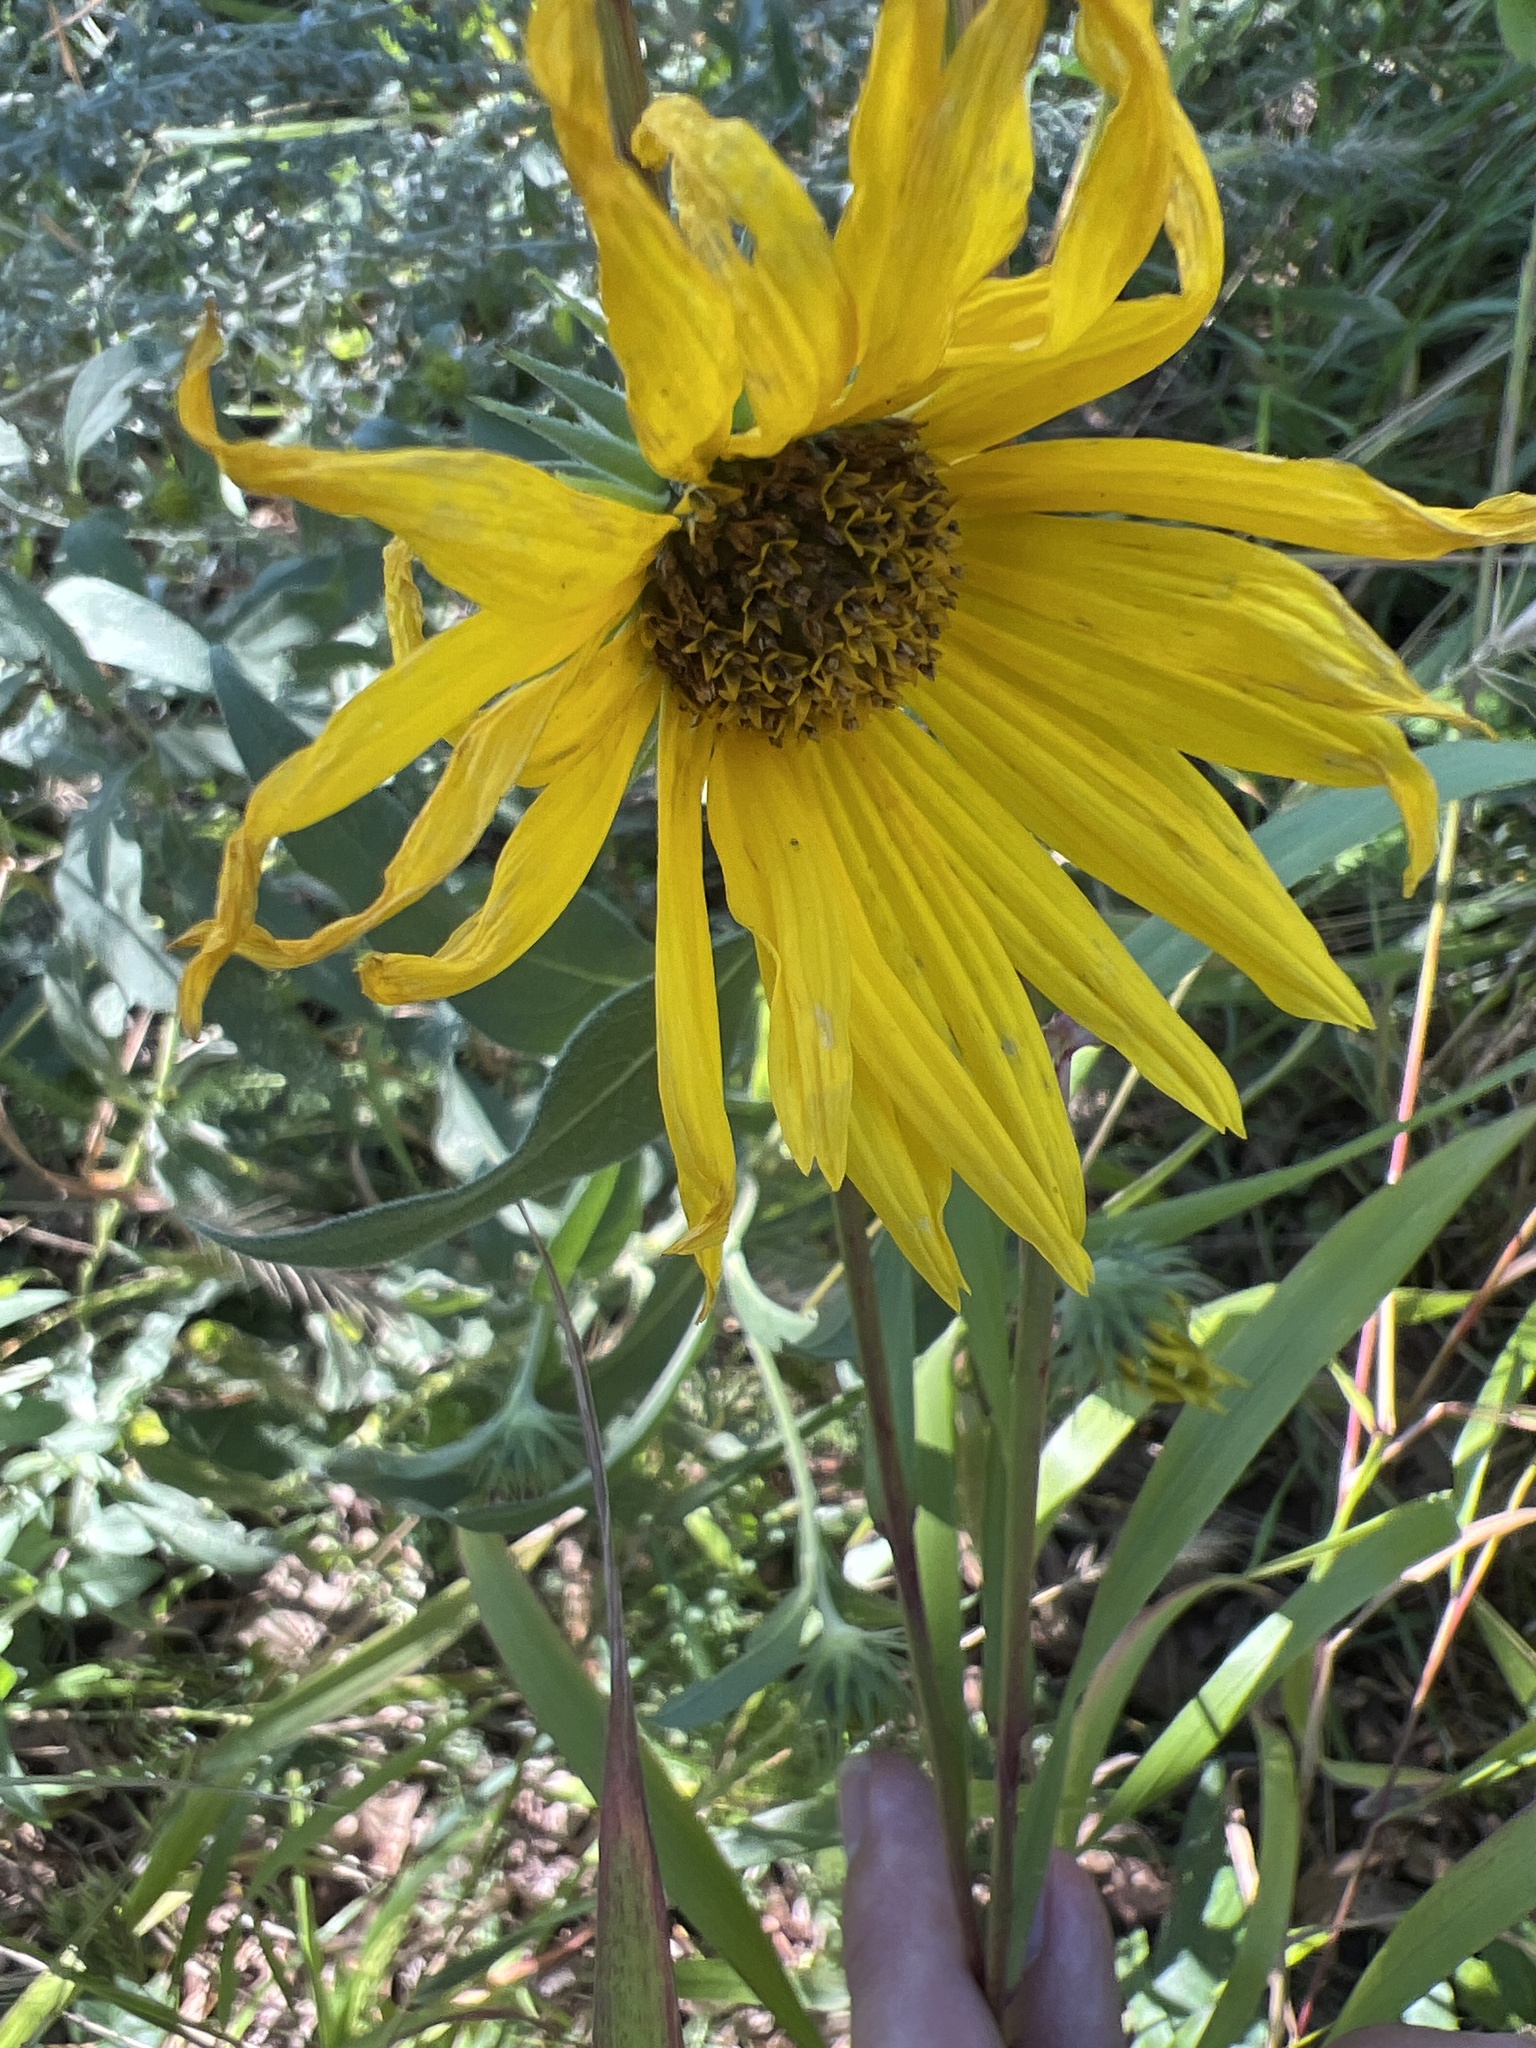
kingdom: Plantae
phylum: Tracheophyta
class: Magnoliopsida
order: Asterales
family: Asteraceae
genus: Helianthus
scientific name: Helianthus maximiliani
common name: Maximilian's sunflower
